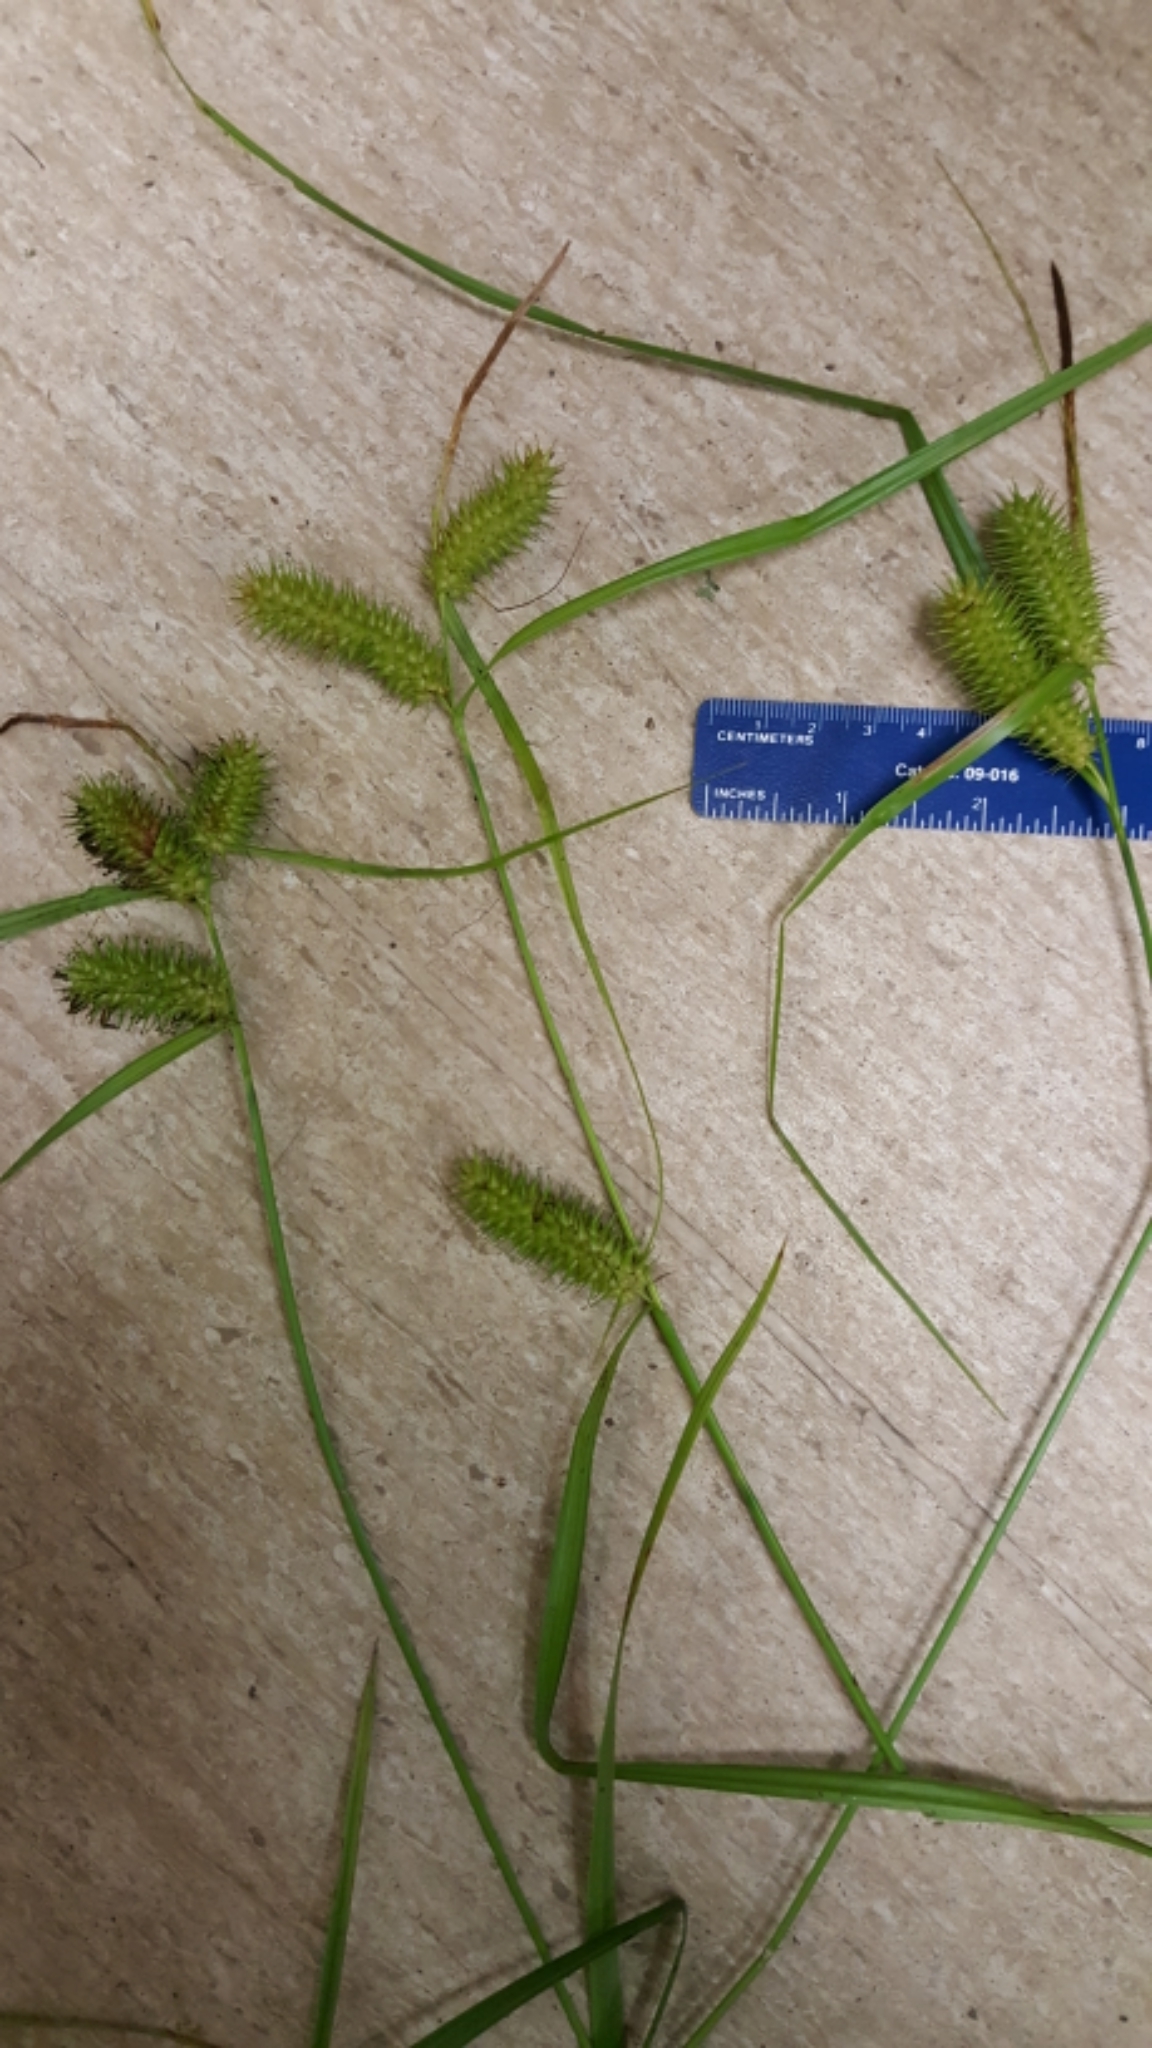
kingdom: Plantae
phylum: Tracheophyta
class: Liliopsida
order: Poales
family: Cyperaceae
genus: Carex
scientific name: Carex lurida
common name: Sallow sedge
